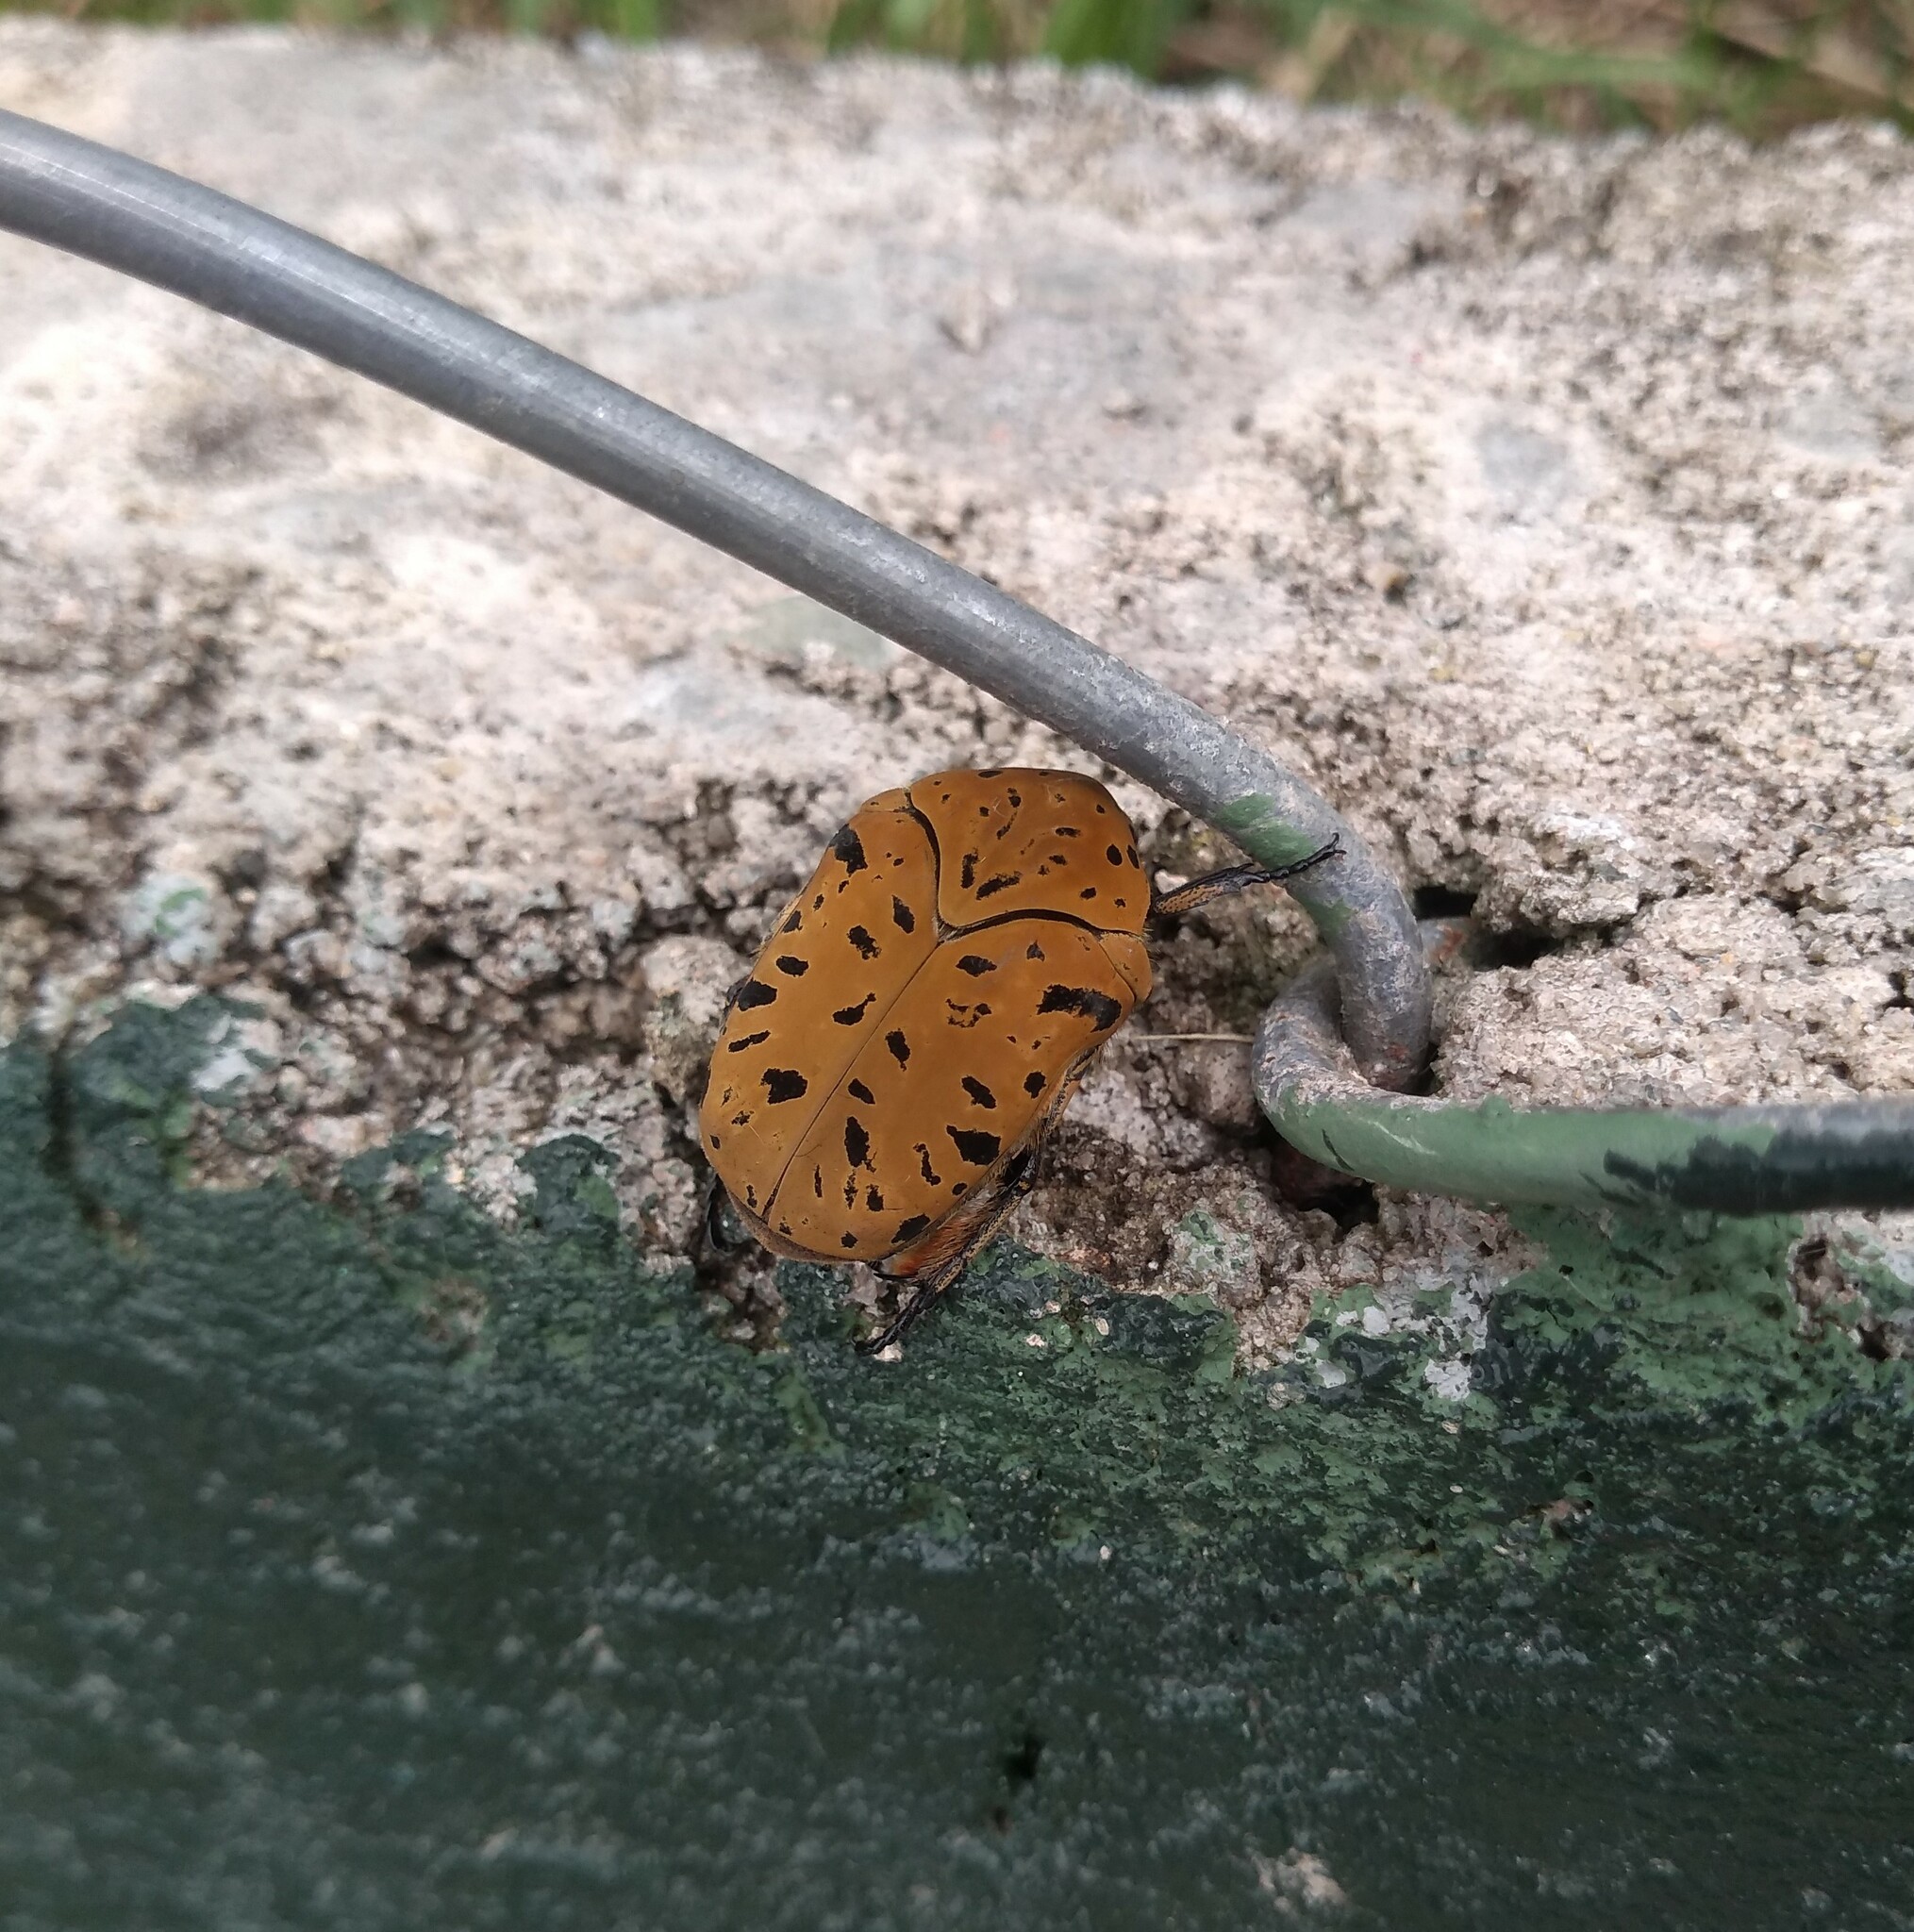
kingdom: Animalia
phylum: Arthropoda
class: Insecta
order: Coleoptera
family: Scarabaeidae
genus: Gymnetis
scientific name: Gymnetis pantherina
